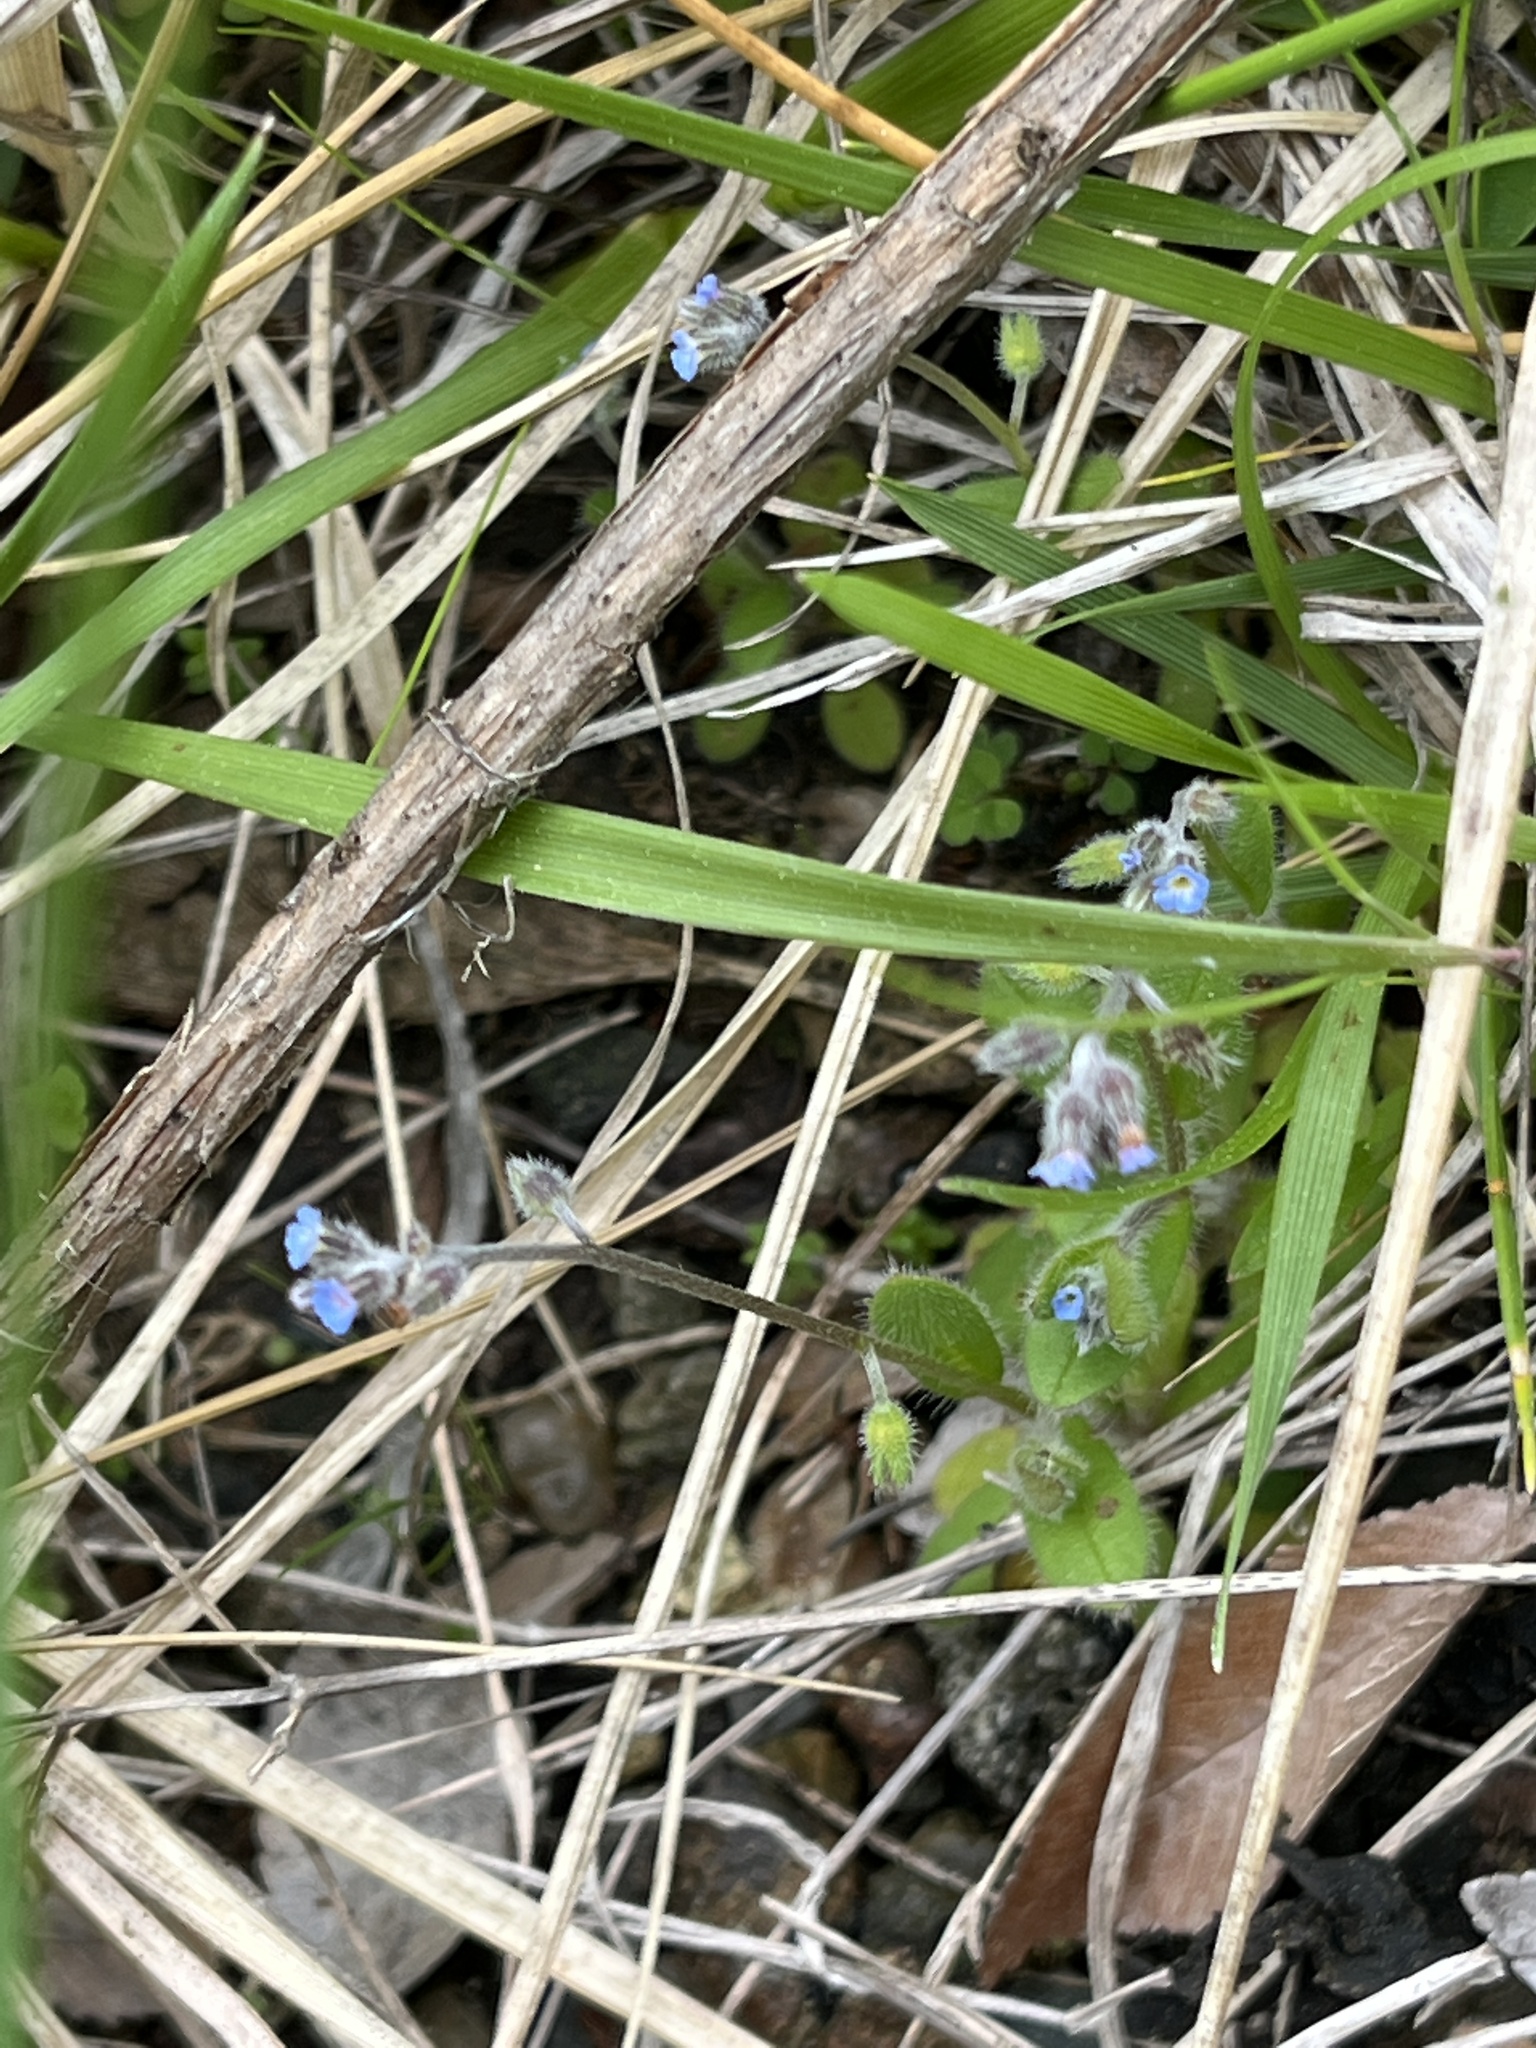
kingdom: Plantae
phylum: Tracheophyta
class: Magnoliopsida
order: Boraginales
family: Boraginaceae
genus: Myosotis
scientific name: Myosotis ramosissima
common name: Early forget-me-not
